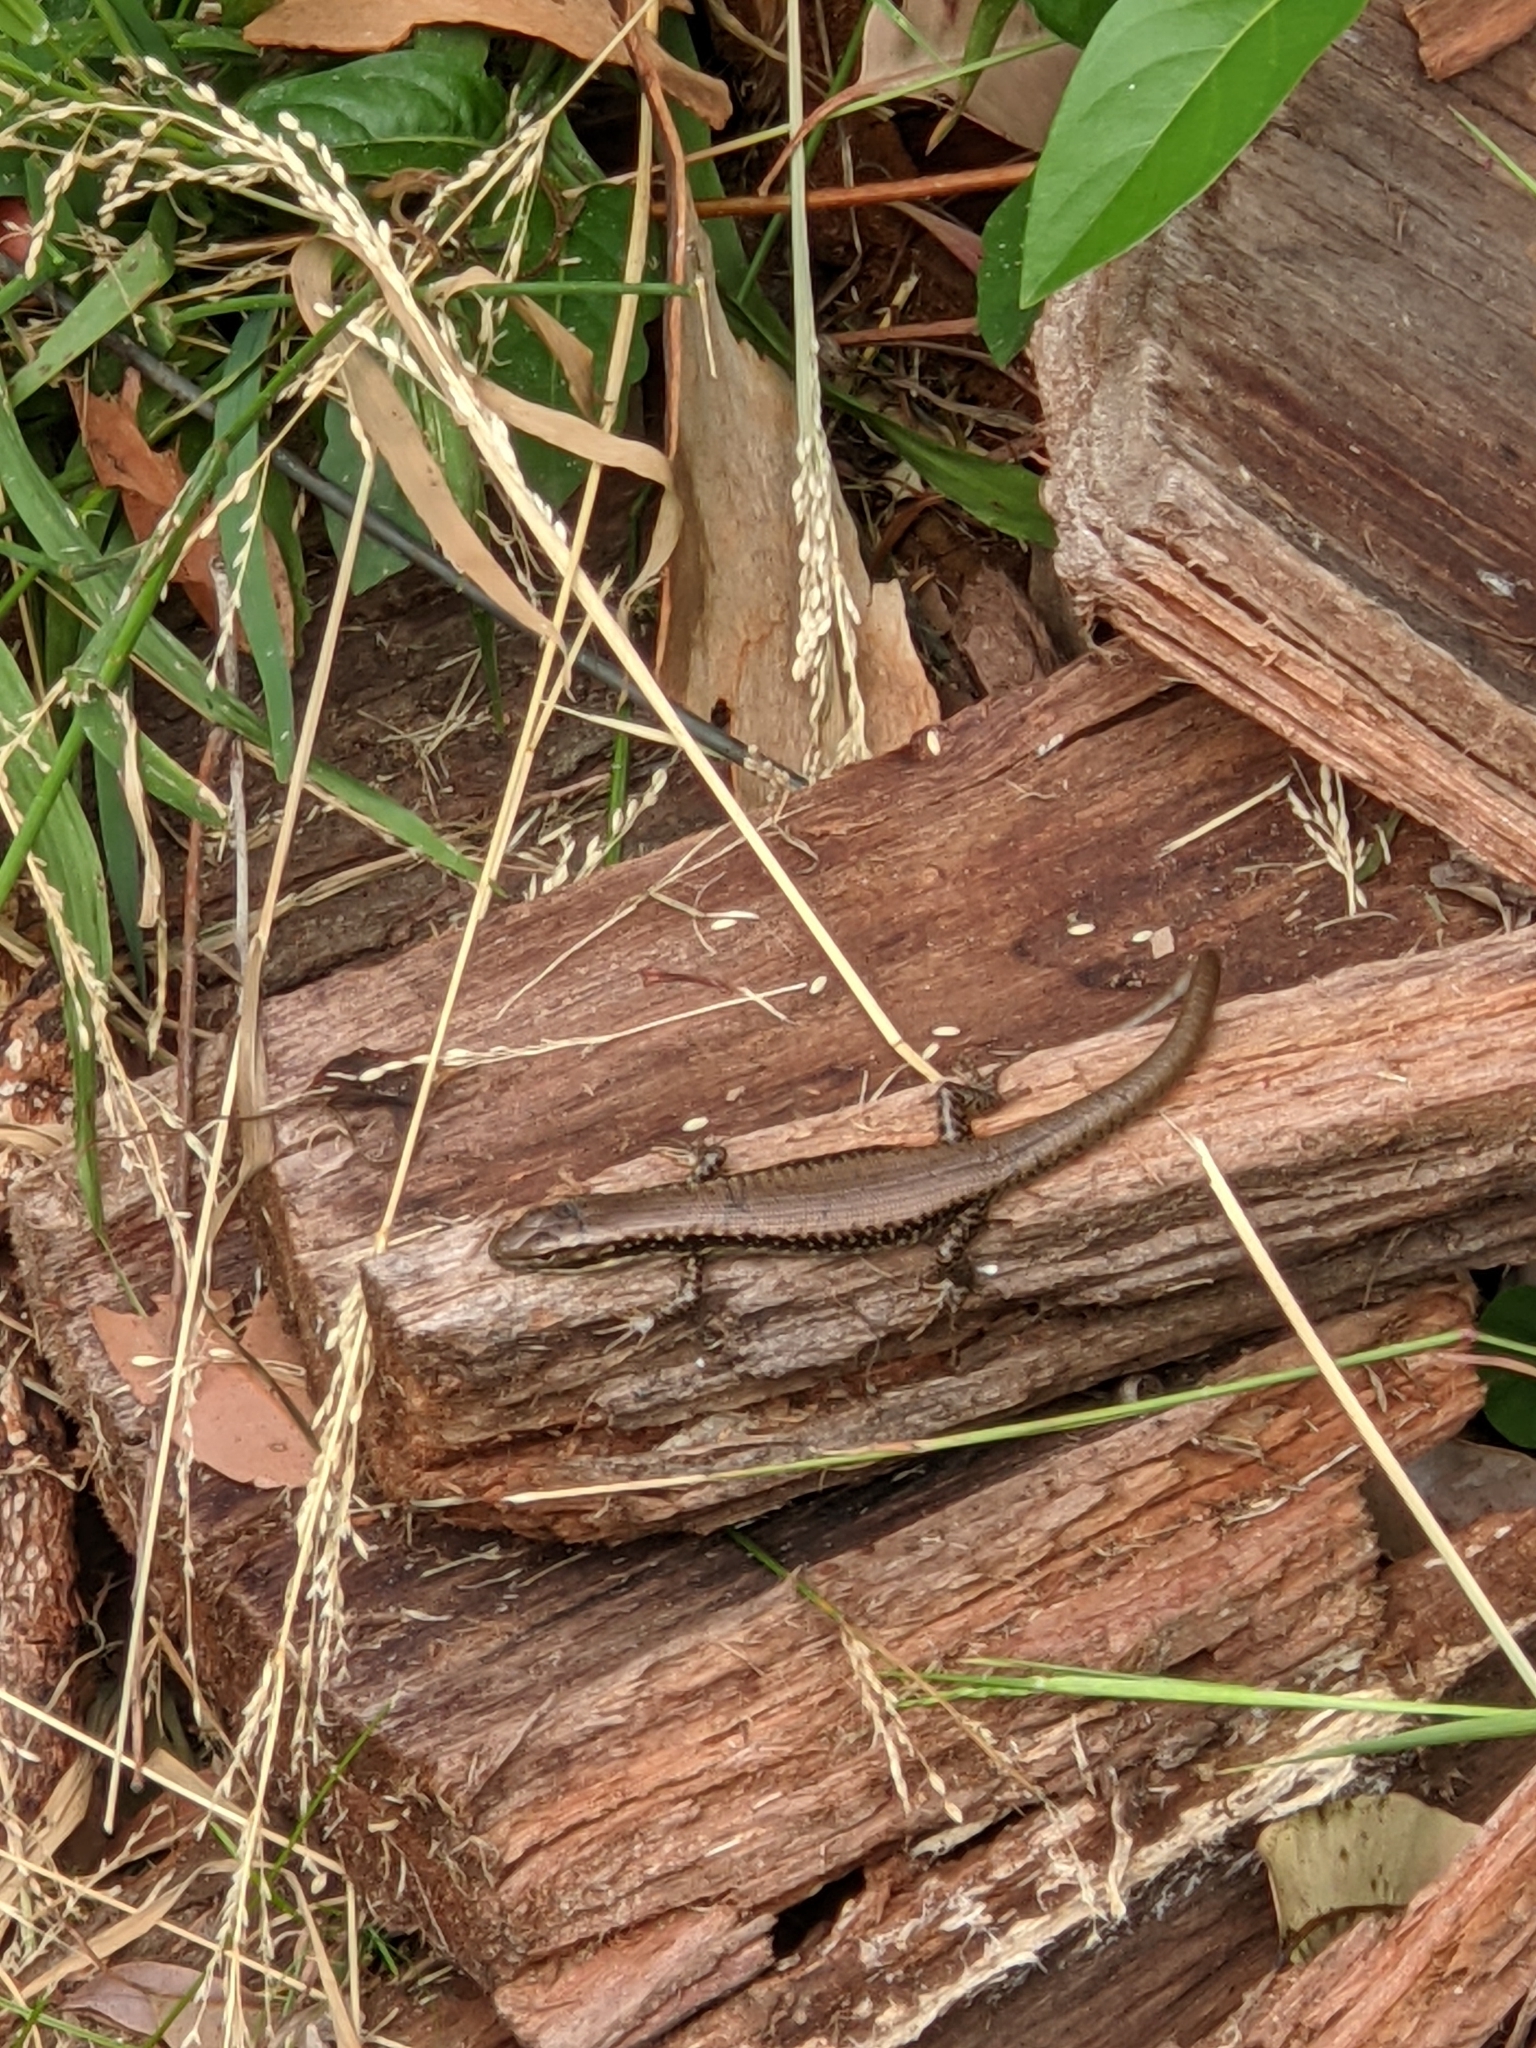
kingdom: Animalia
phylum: Chordata
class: Squamata
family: Scincidae
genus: Eulamprus
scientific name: Eulamprus heatwolei
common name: Warm-temperate water-skink
